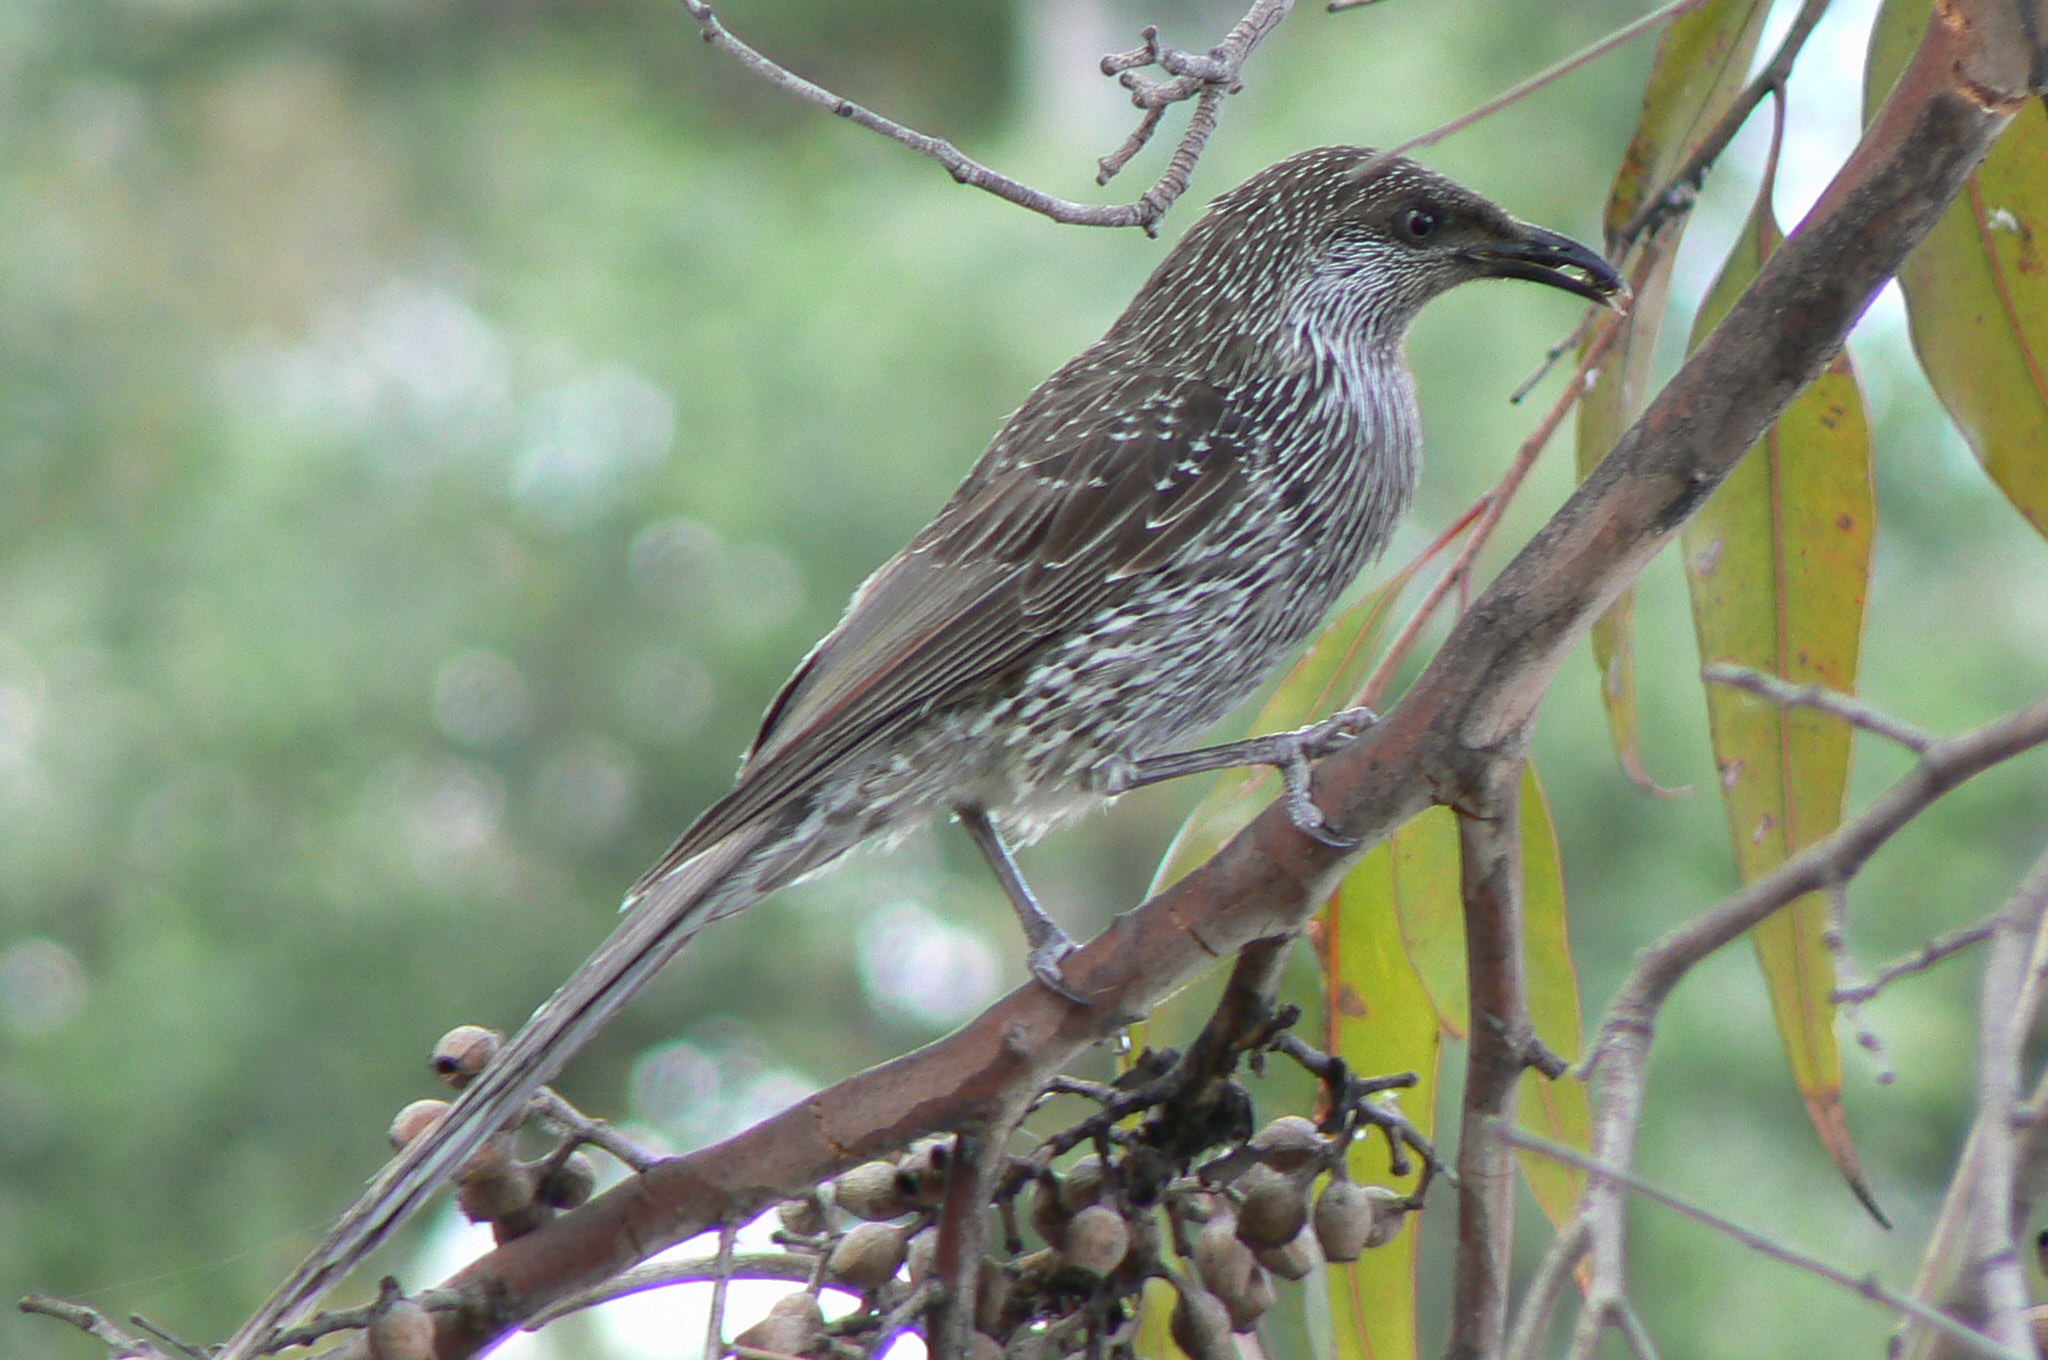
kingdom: Animalia
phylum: Chordata
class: Aves
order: Passeriformes
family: Meliphagidae
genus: Anthochaera
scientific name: Anthochaera chrysoptera
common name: Little wattlebird
